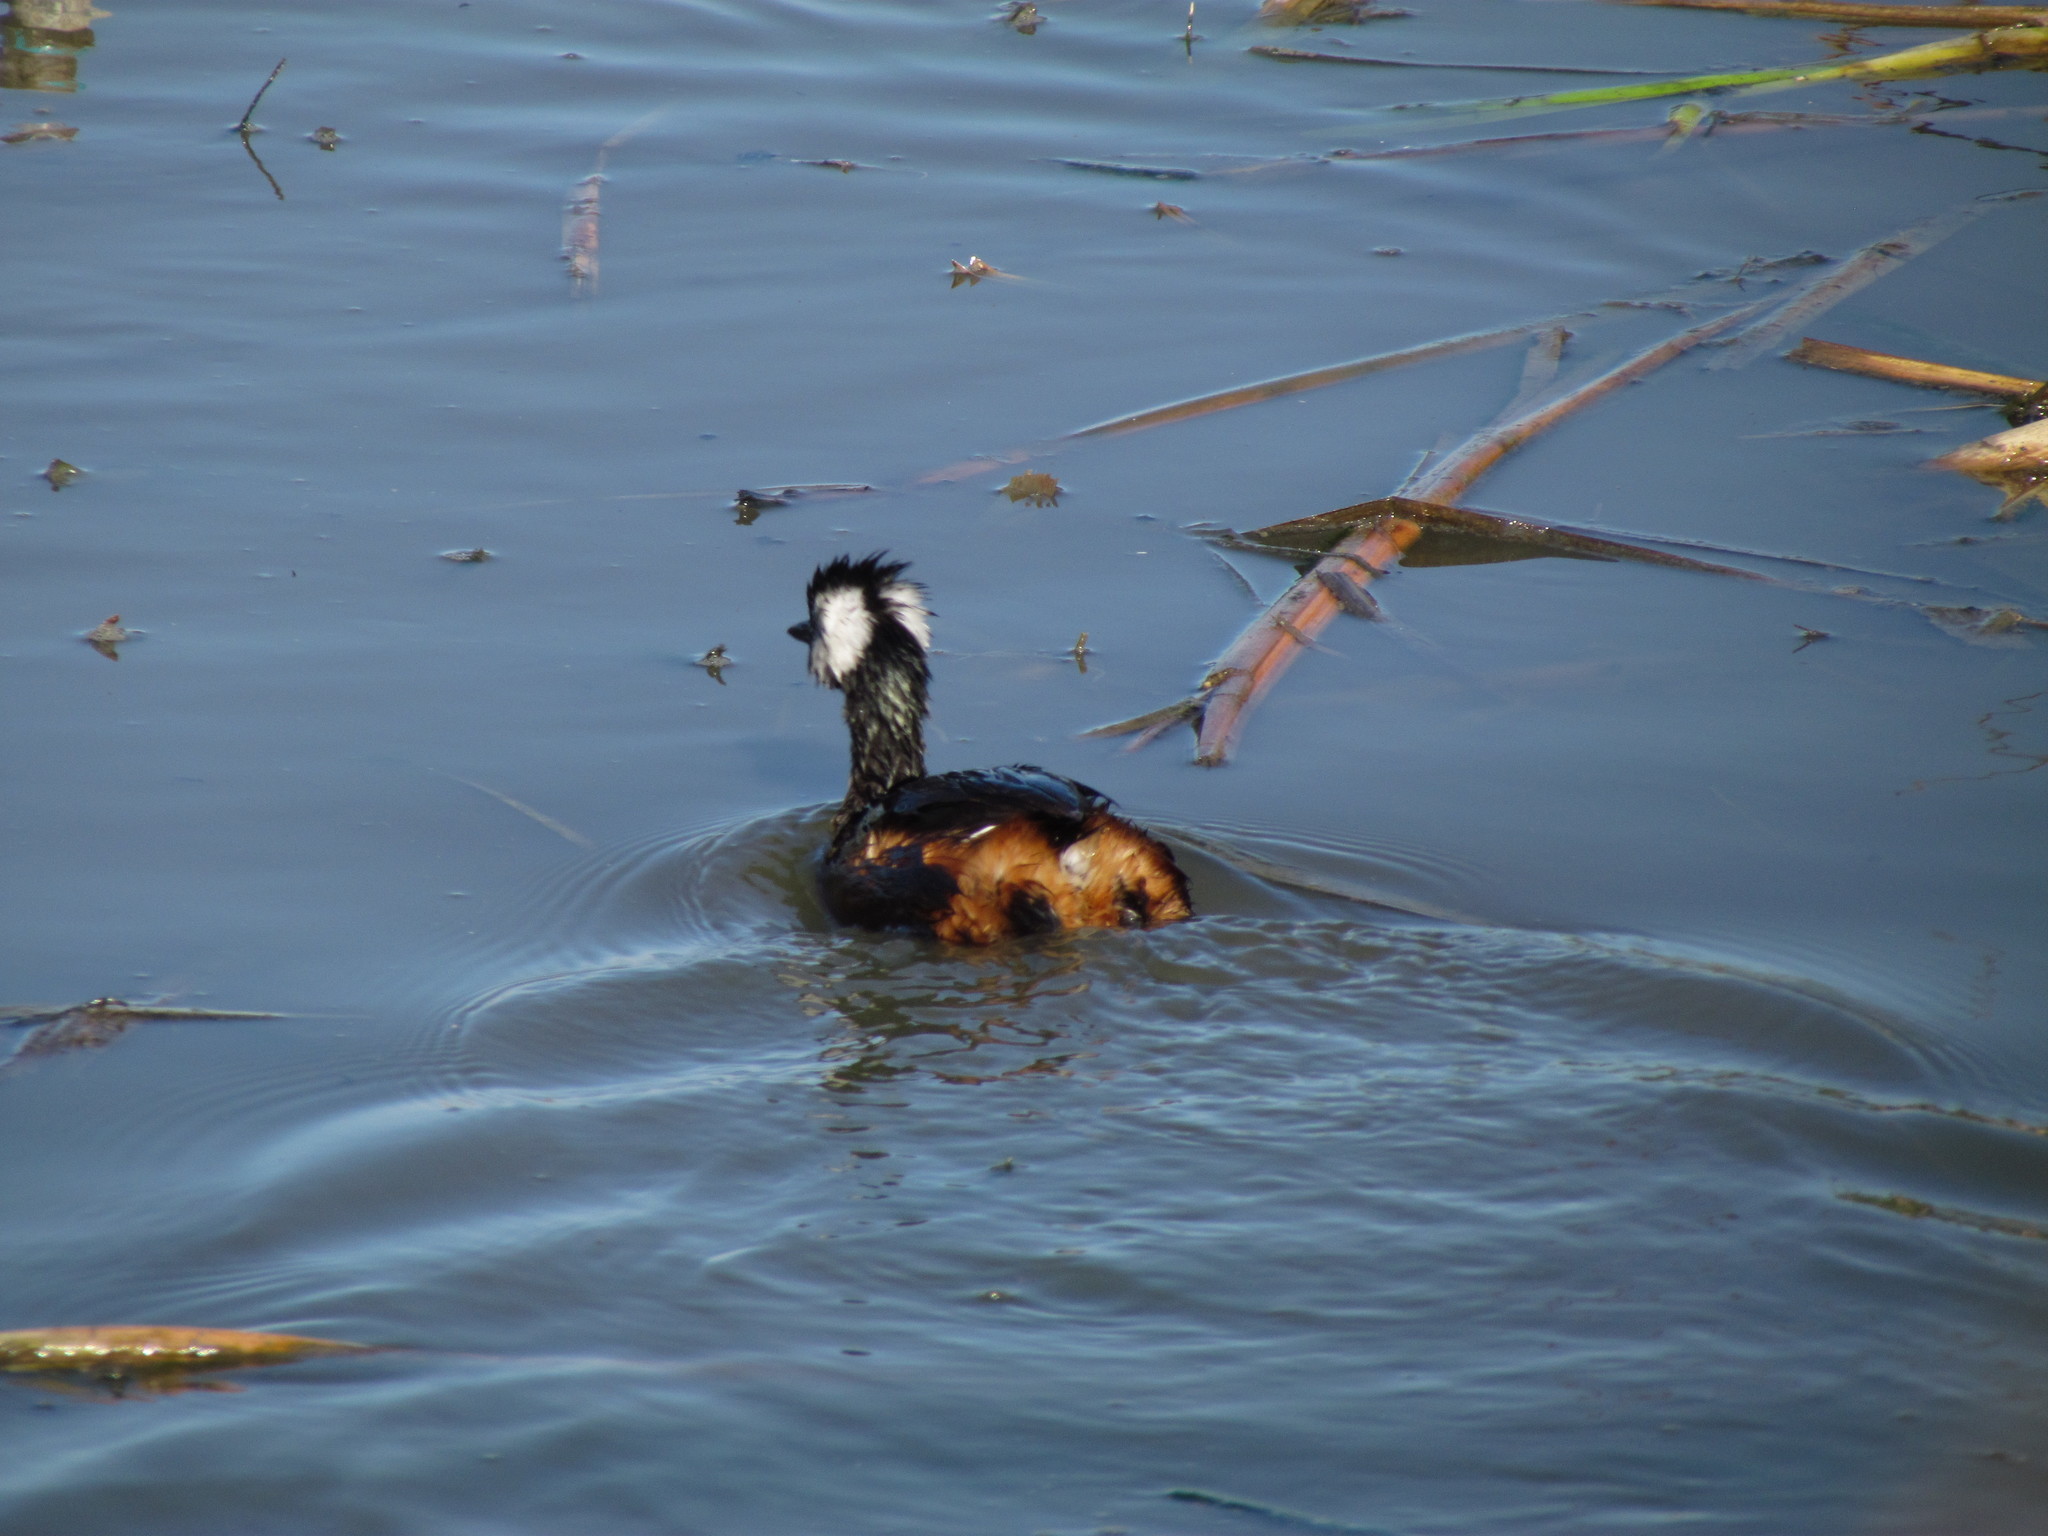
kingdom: Animalia
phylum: Chordata
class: Aves
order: Podicipediformes
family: Podicipedidae
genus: Rollandia
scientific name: Rollandia rolland
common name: White-tufted grebe
